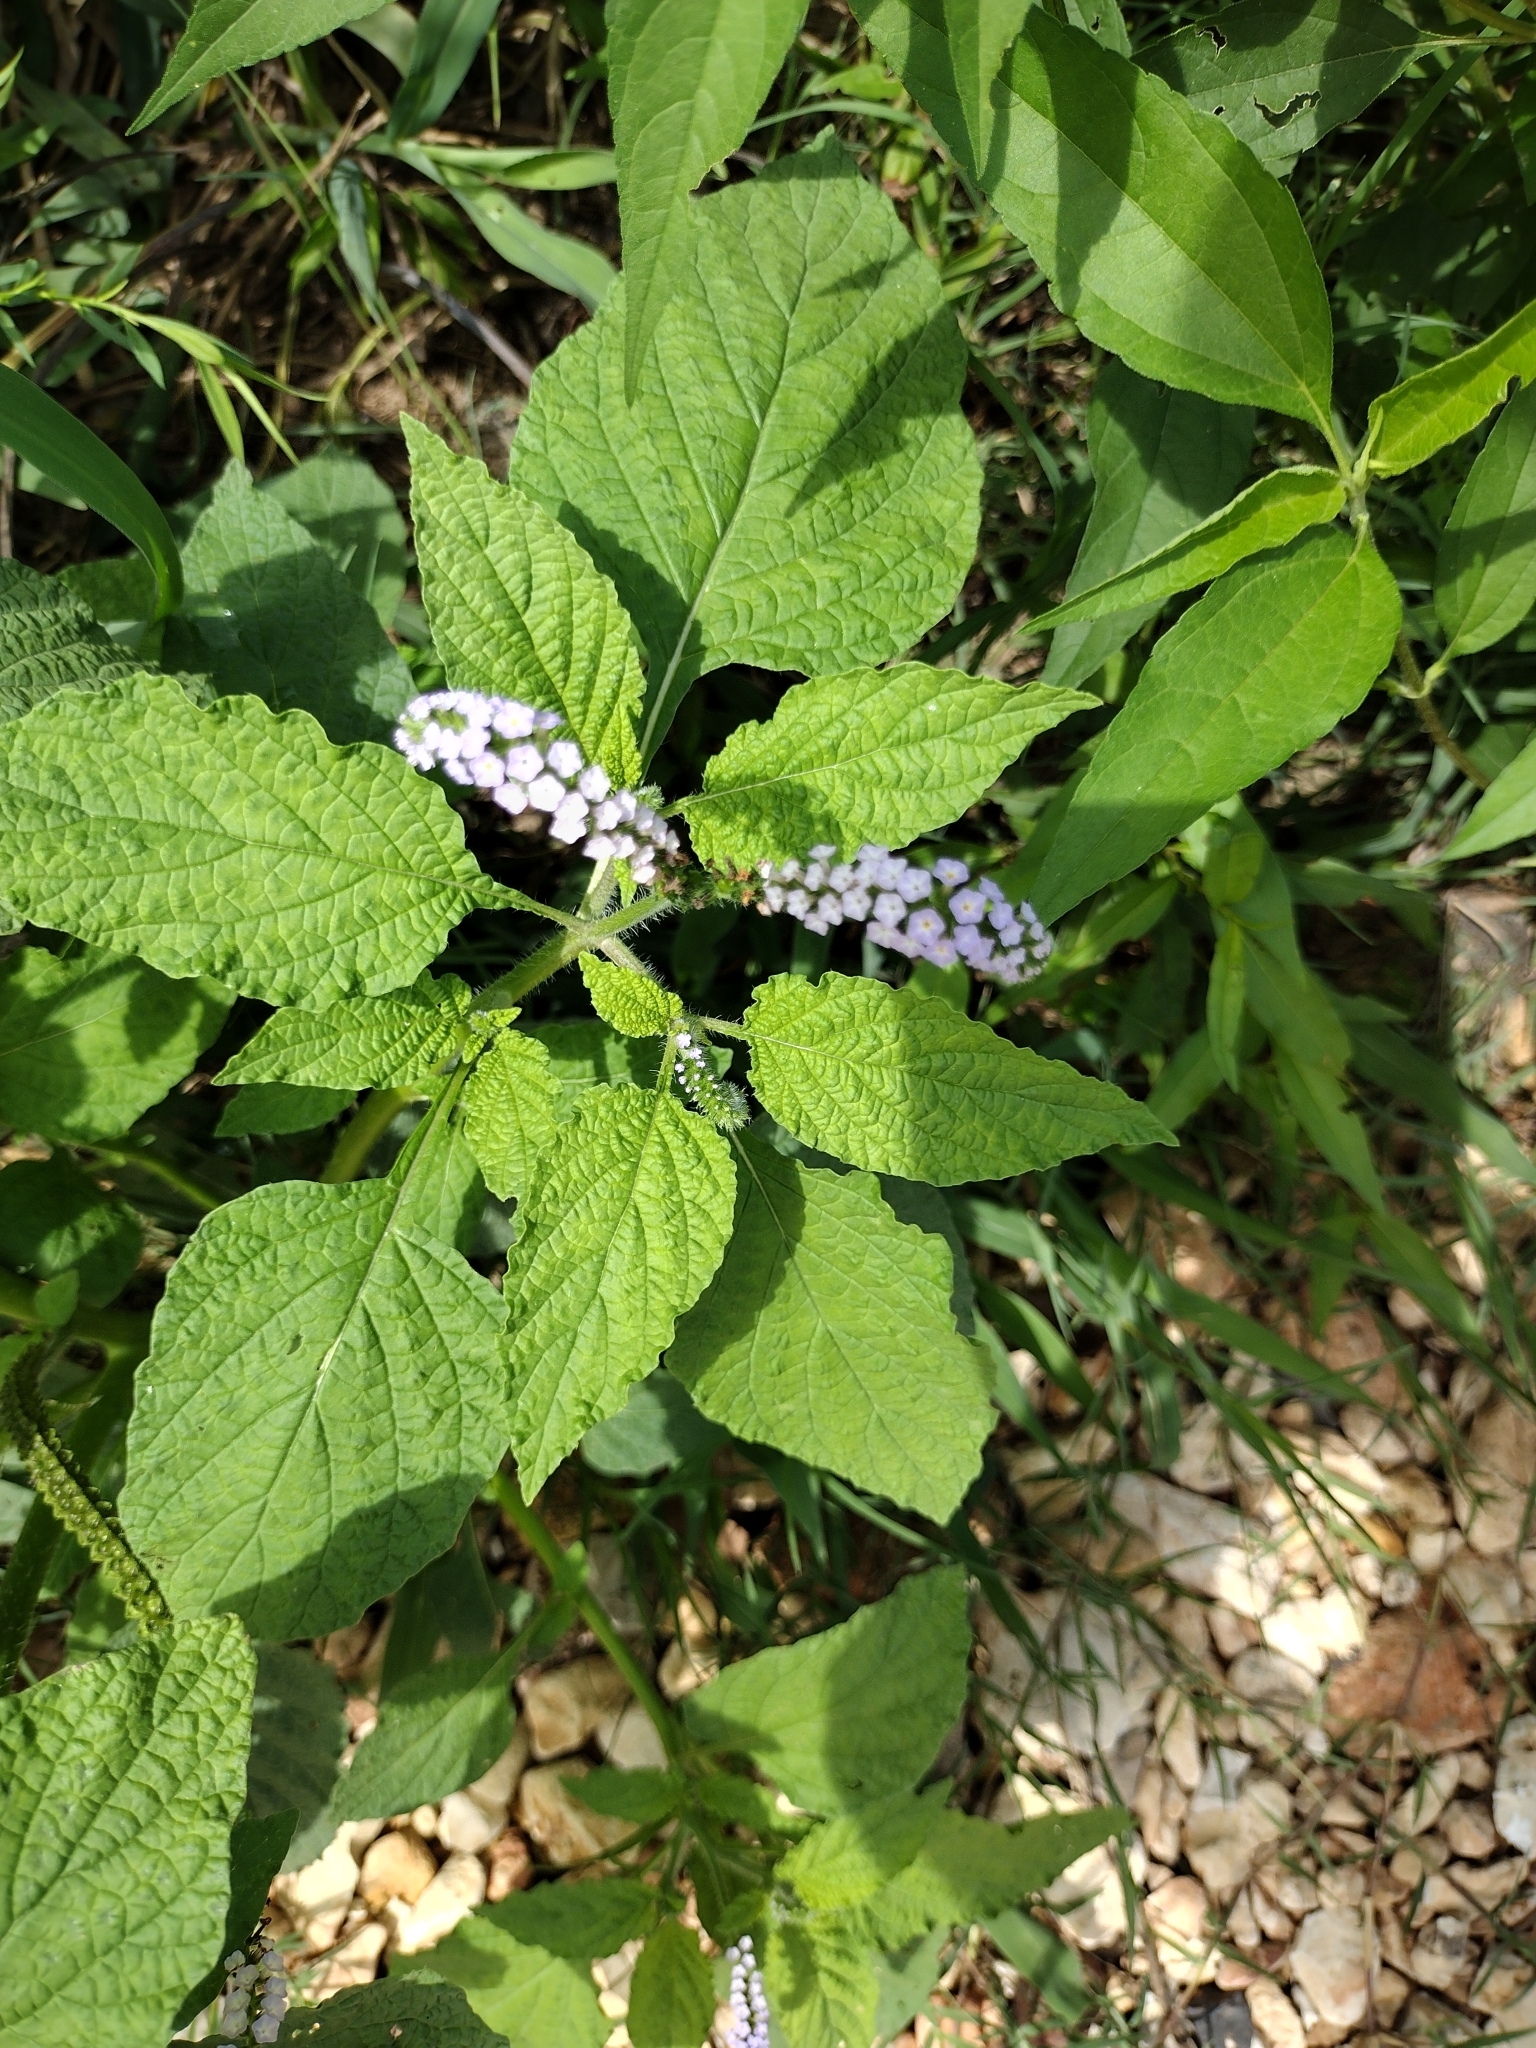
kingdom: Plantae
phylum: Tracheophyta
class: Magnoliopsida
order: Boraginales
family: Heliotropiaceae
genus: Heliotropium
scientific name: Heliotropium indicum
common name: Indian heliotrope
